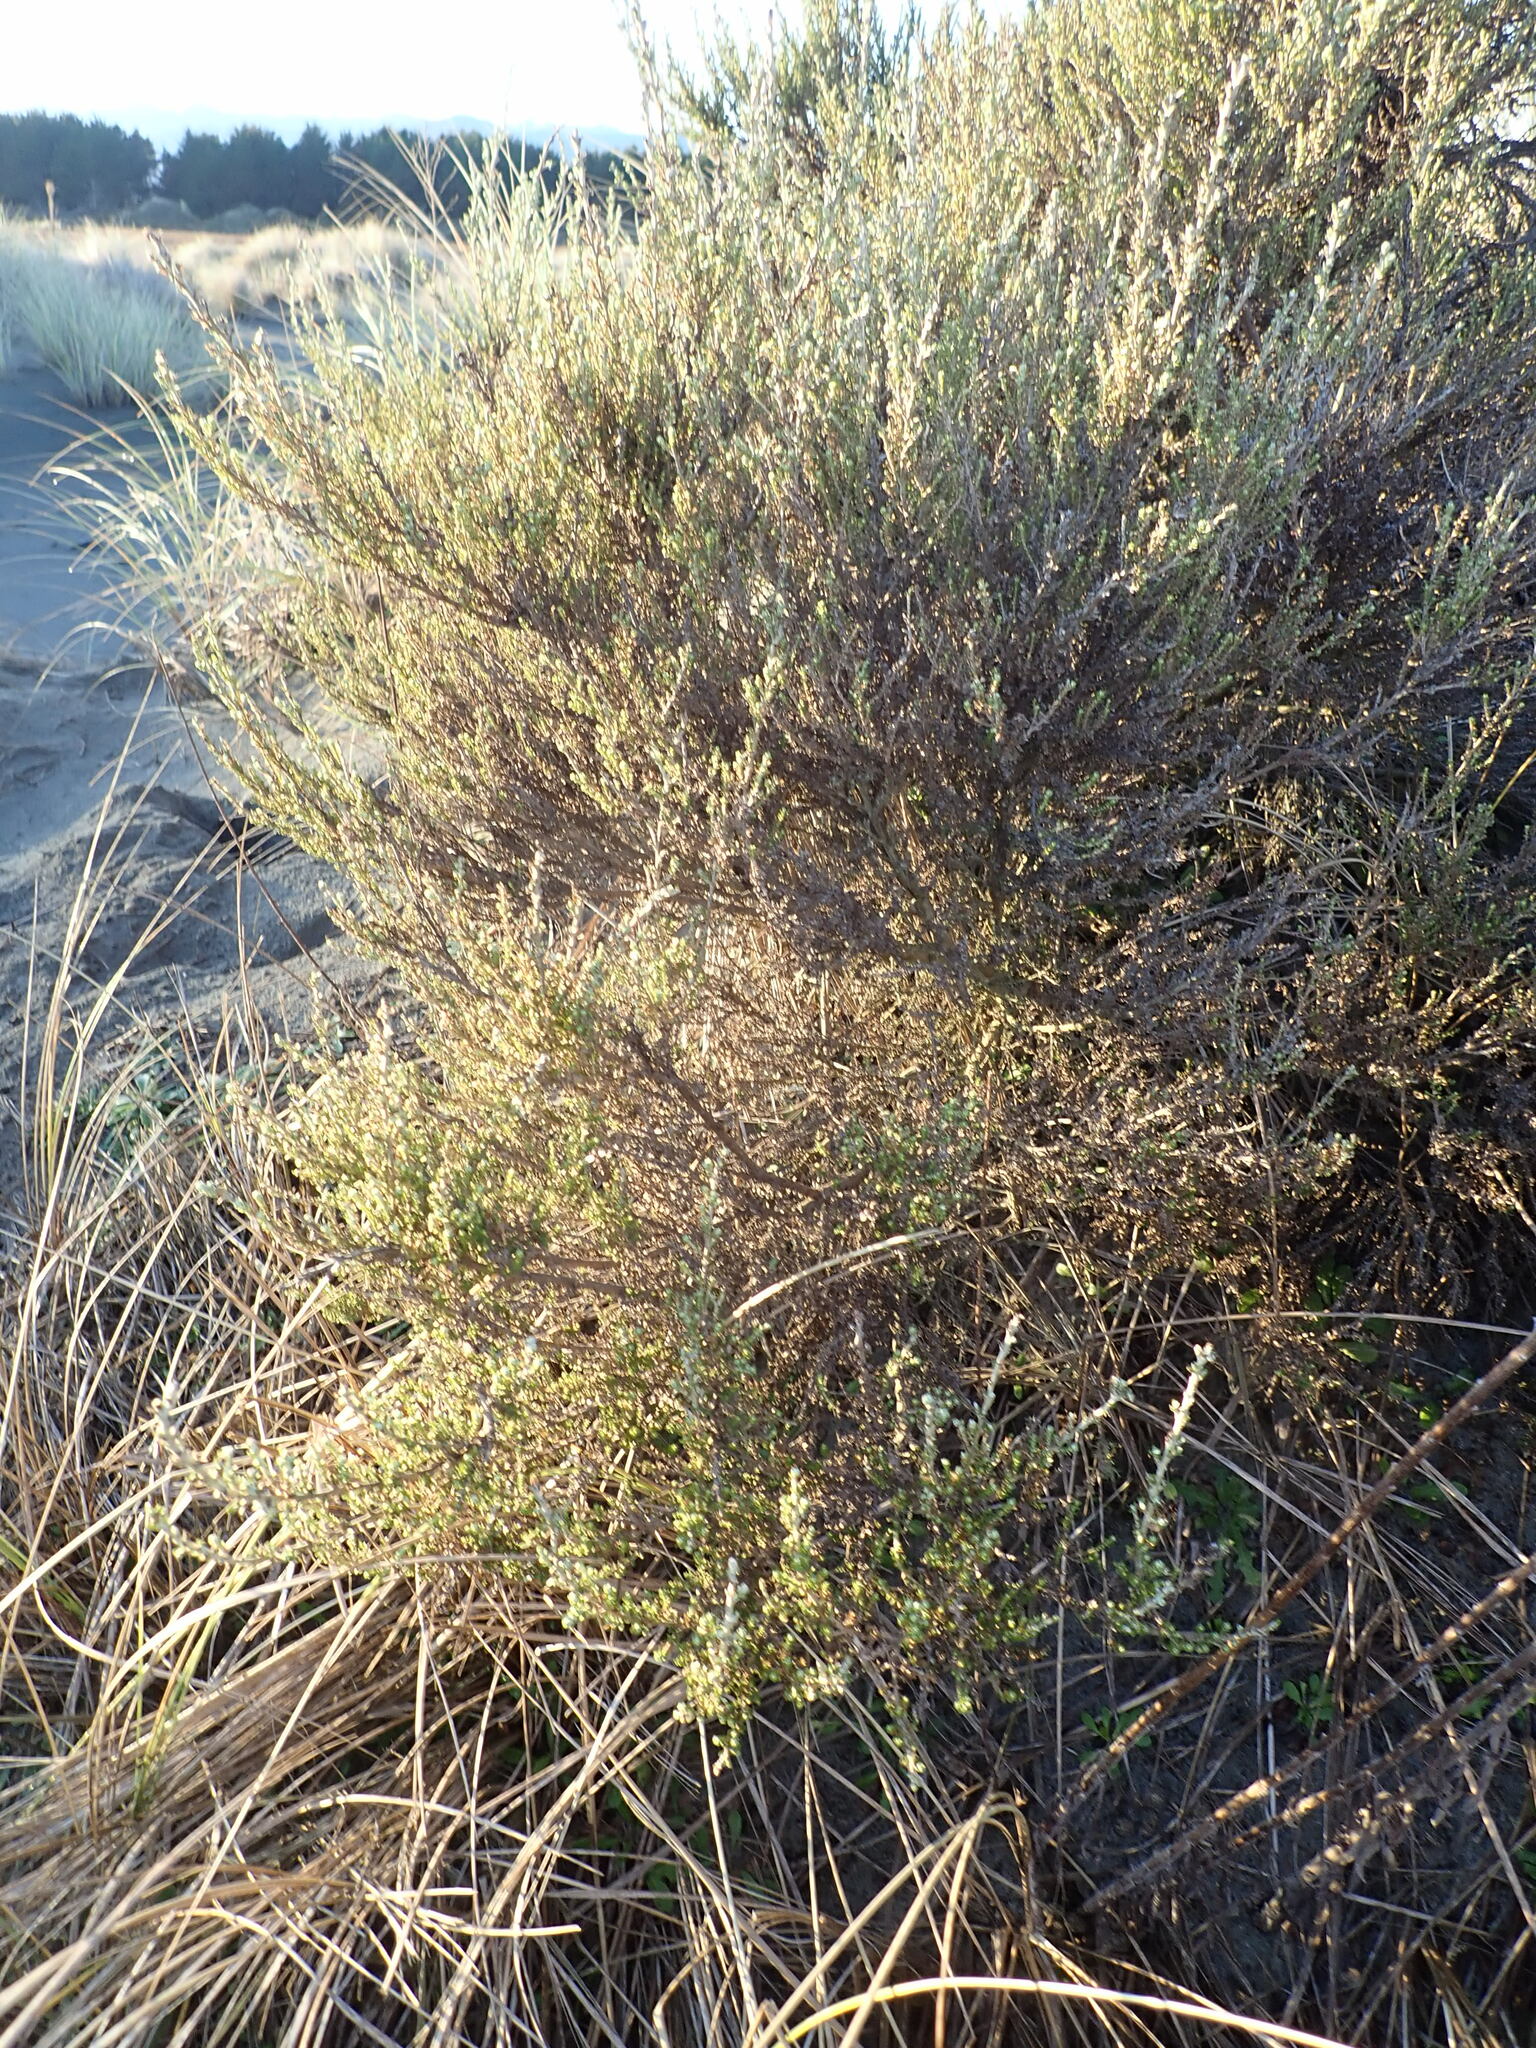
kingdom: Plantae
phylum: Tracheophyta
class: Magnoliopsida
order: Asterales
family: Asteraceae
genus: Ozothamnus
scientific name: Ozothamnus leptophyllus
